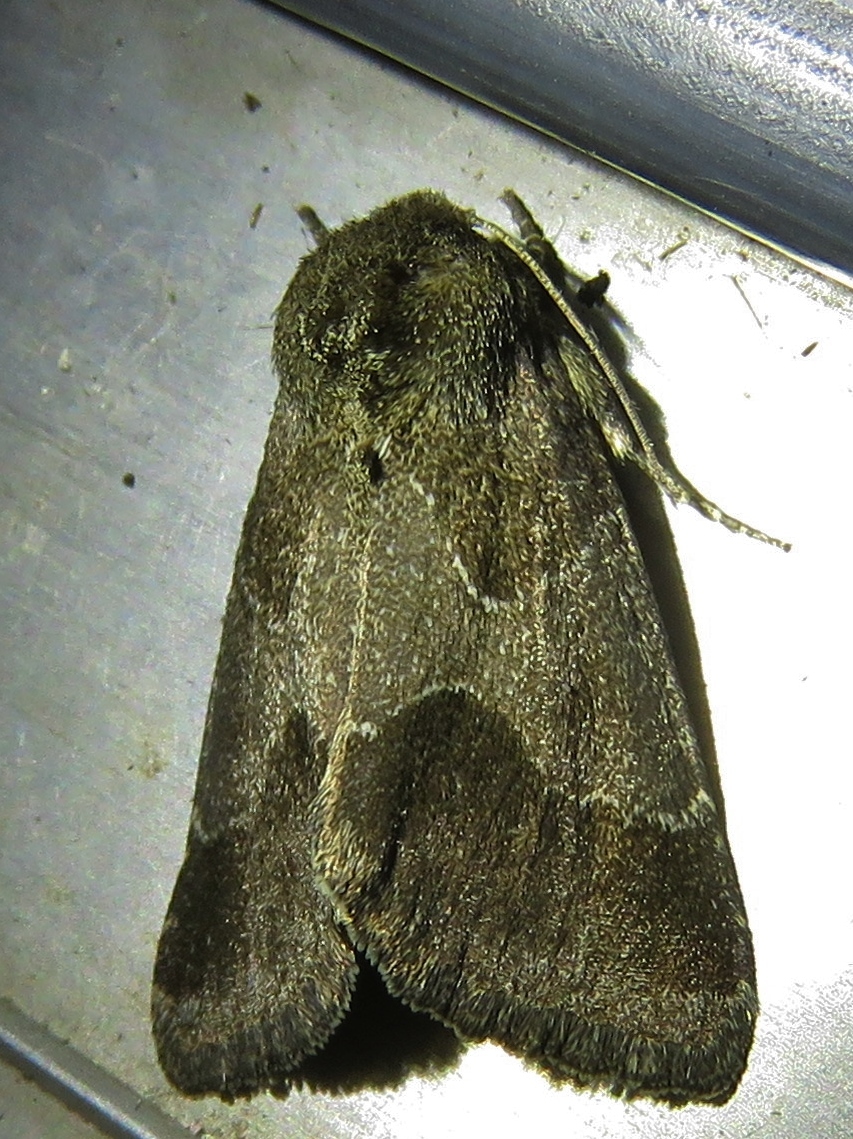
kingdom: Animalia
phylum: Arthropoda
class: Insecta
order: Lepidoptera
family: Noctuidae
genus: Schinia
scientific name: Schinia thoreaui
